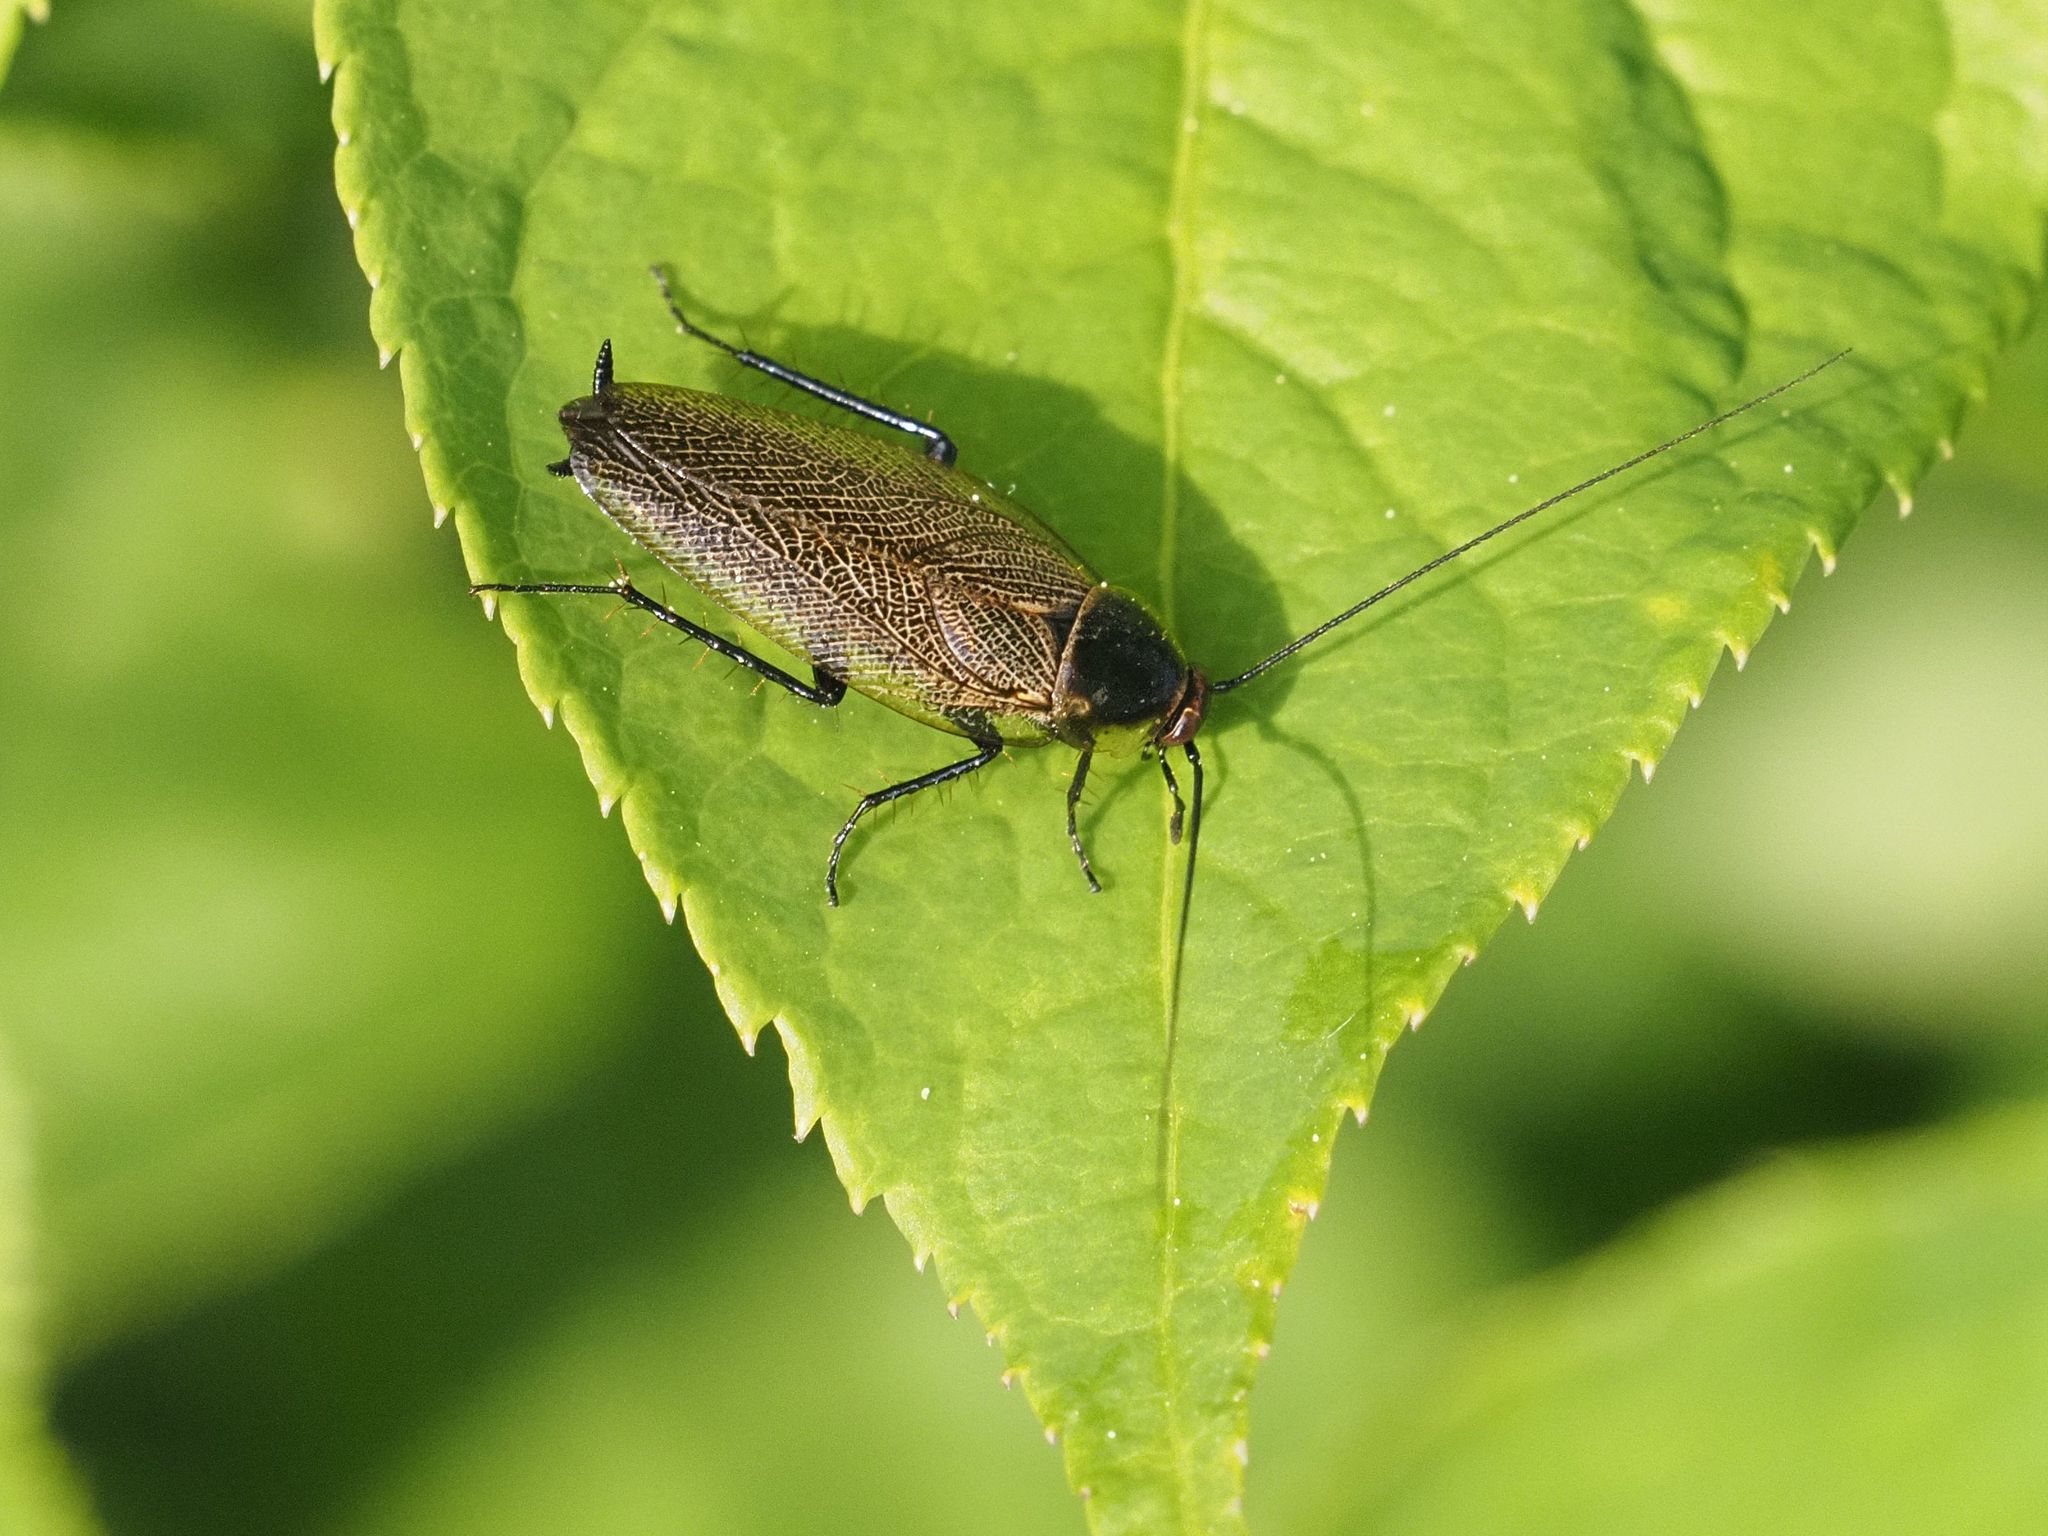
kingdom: Animalia
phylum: Arthropoda
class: Insecta
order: Blattodea
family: Ectobiidae
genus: Ectobius
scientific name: Ectobius erythronotus
